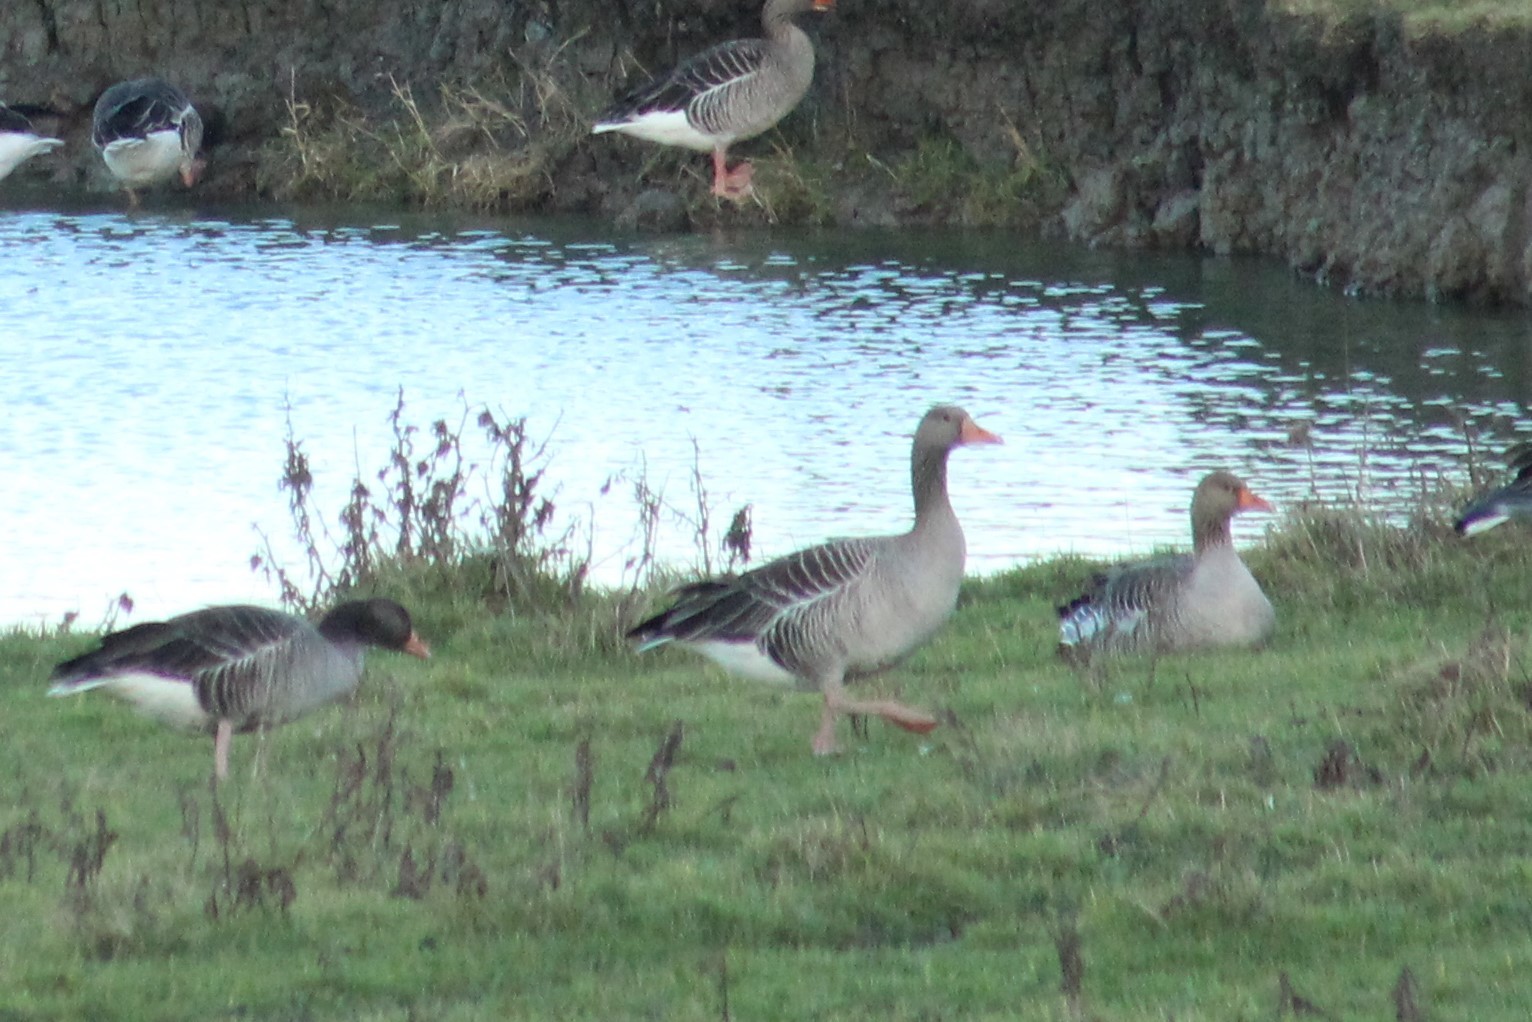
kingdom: Animalia
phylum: Chordata
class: Aves
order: Anseriformes
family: Anatidae
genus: Anser
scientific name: Anser anser
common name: Greylag goose
